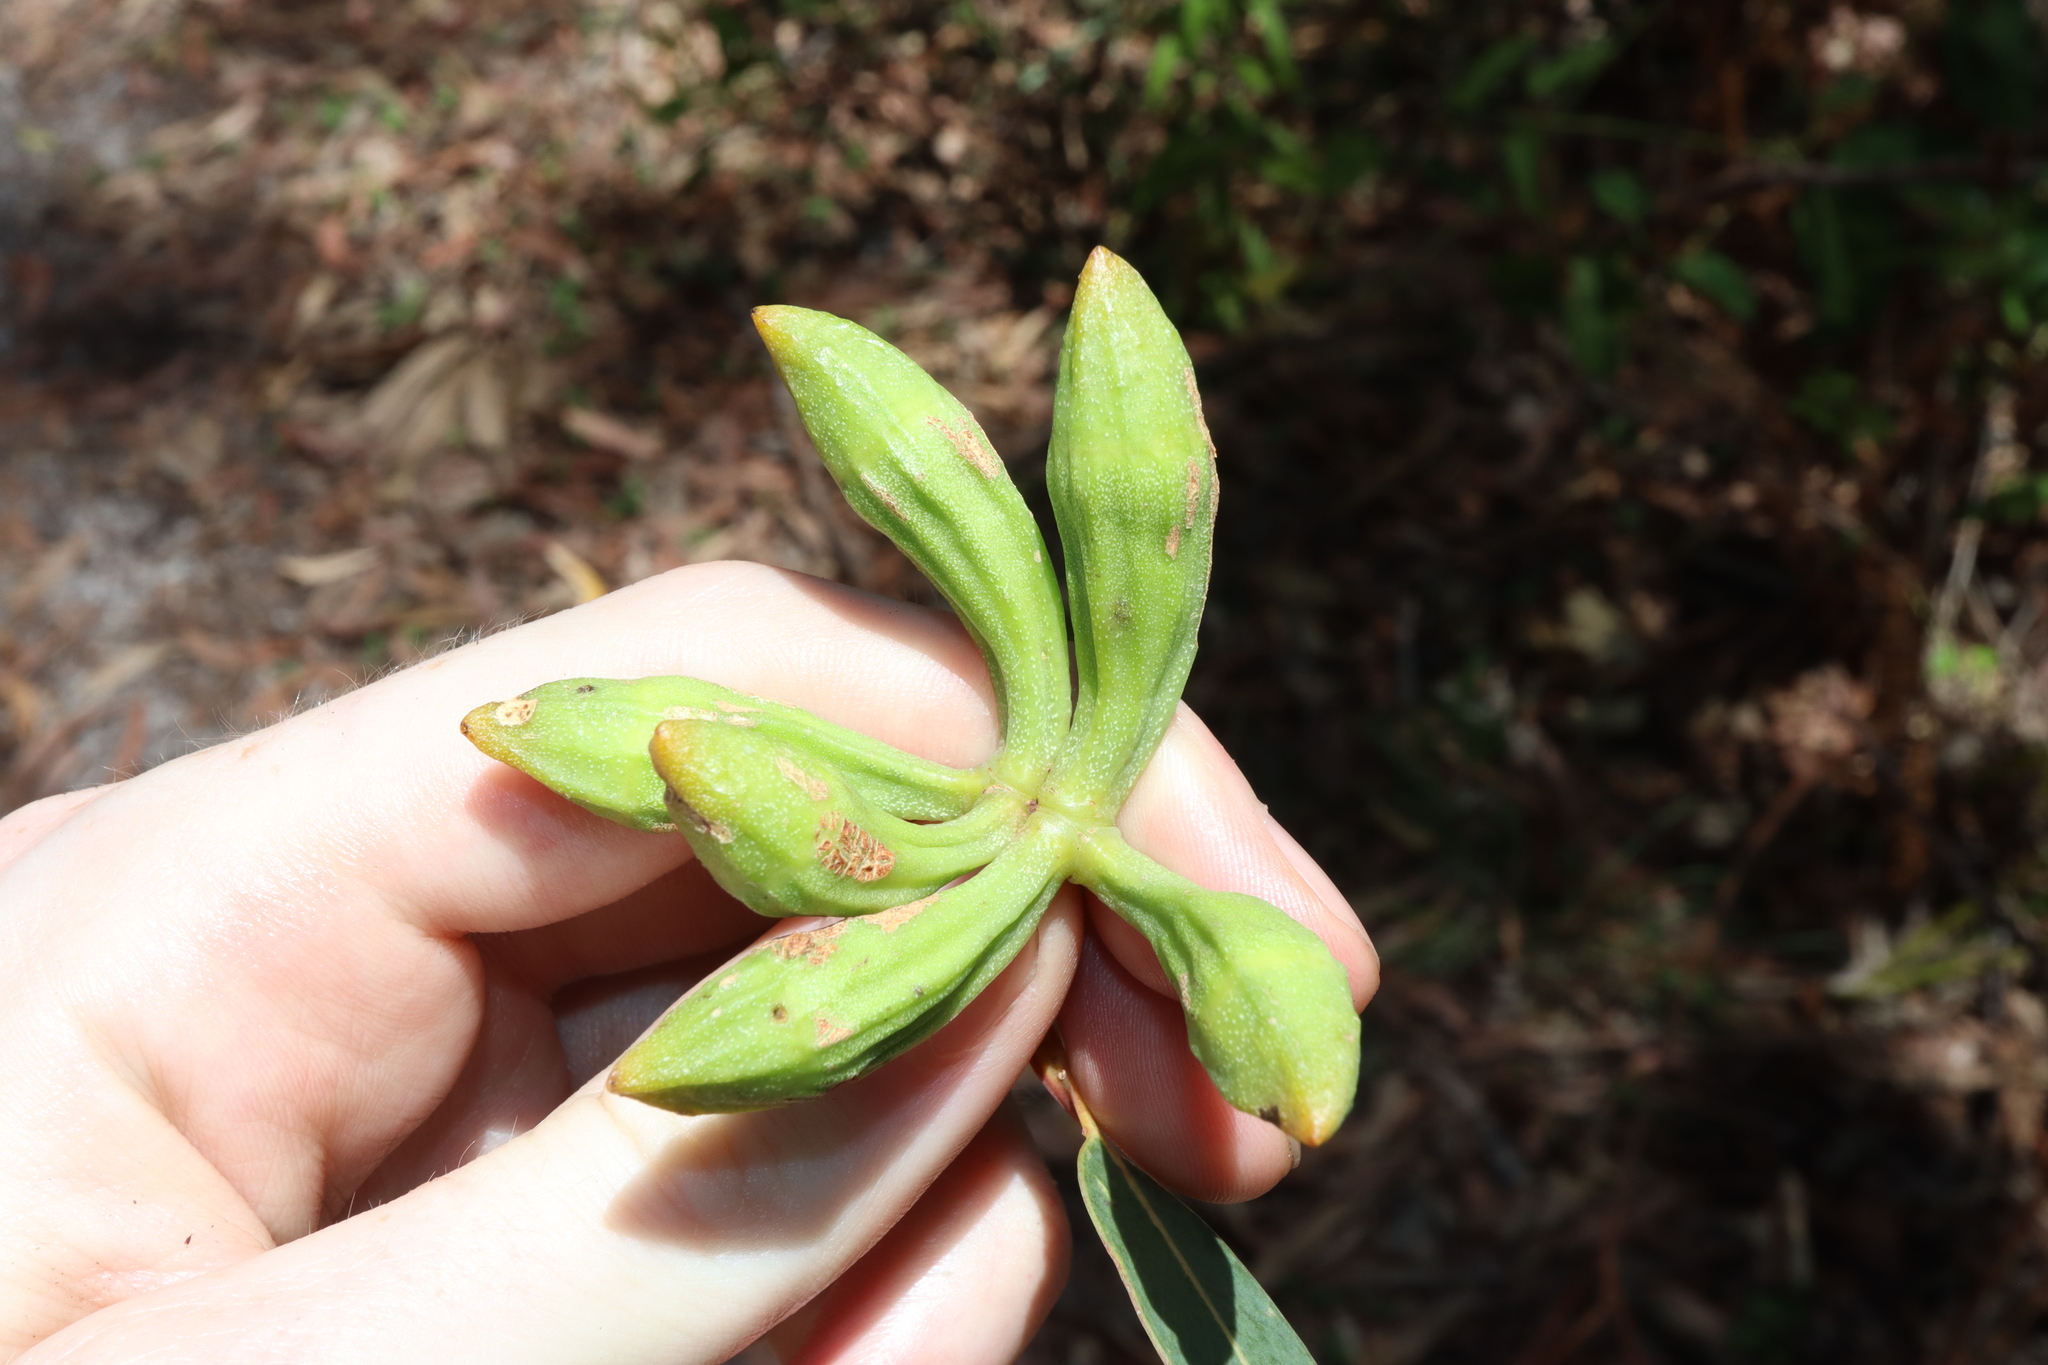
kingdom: Plantae
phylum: Tracheophyta
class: Magnoliopsida
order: Myrtales
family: Myrtaceae
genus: Eucalyptus
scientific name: Eucalyptus planchoniana
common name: Bastard-tallow-wood
